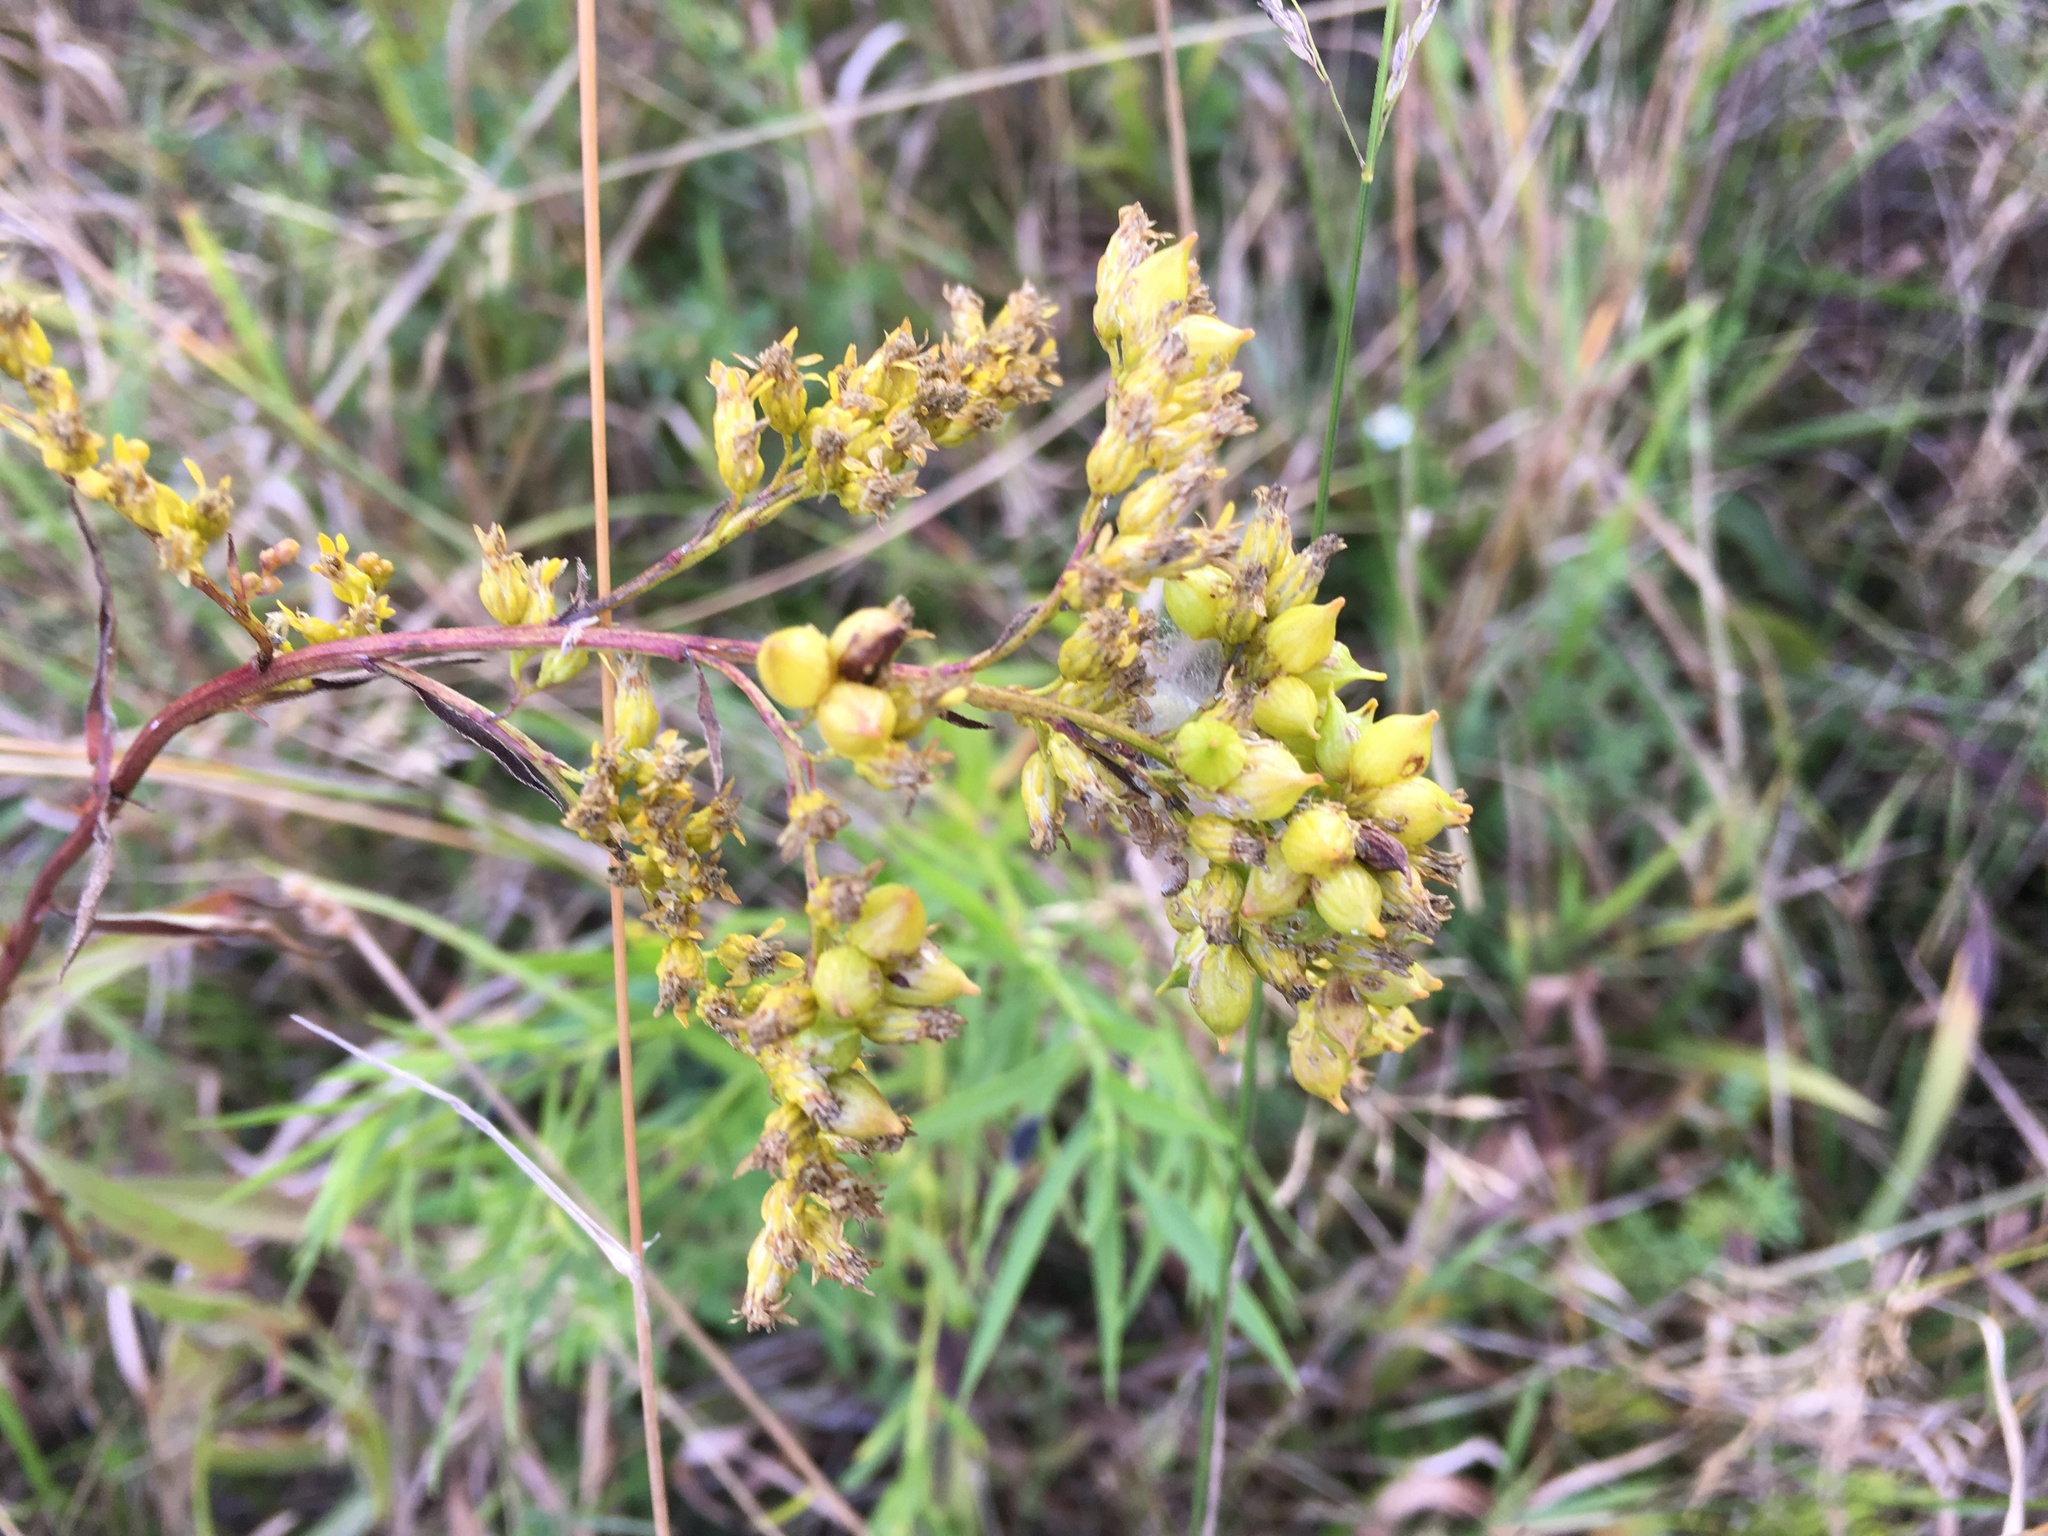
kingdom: Animalia
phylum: Arthropoda
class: Insecta
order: Diptera
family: Cecidomyiidae
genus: Schizomyia
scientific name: Schizomyia racemicola
